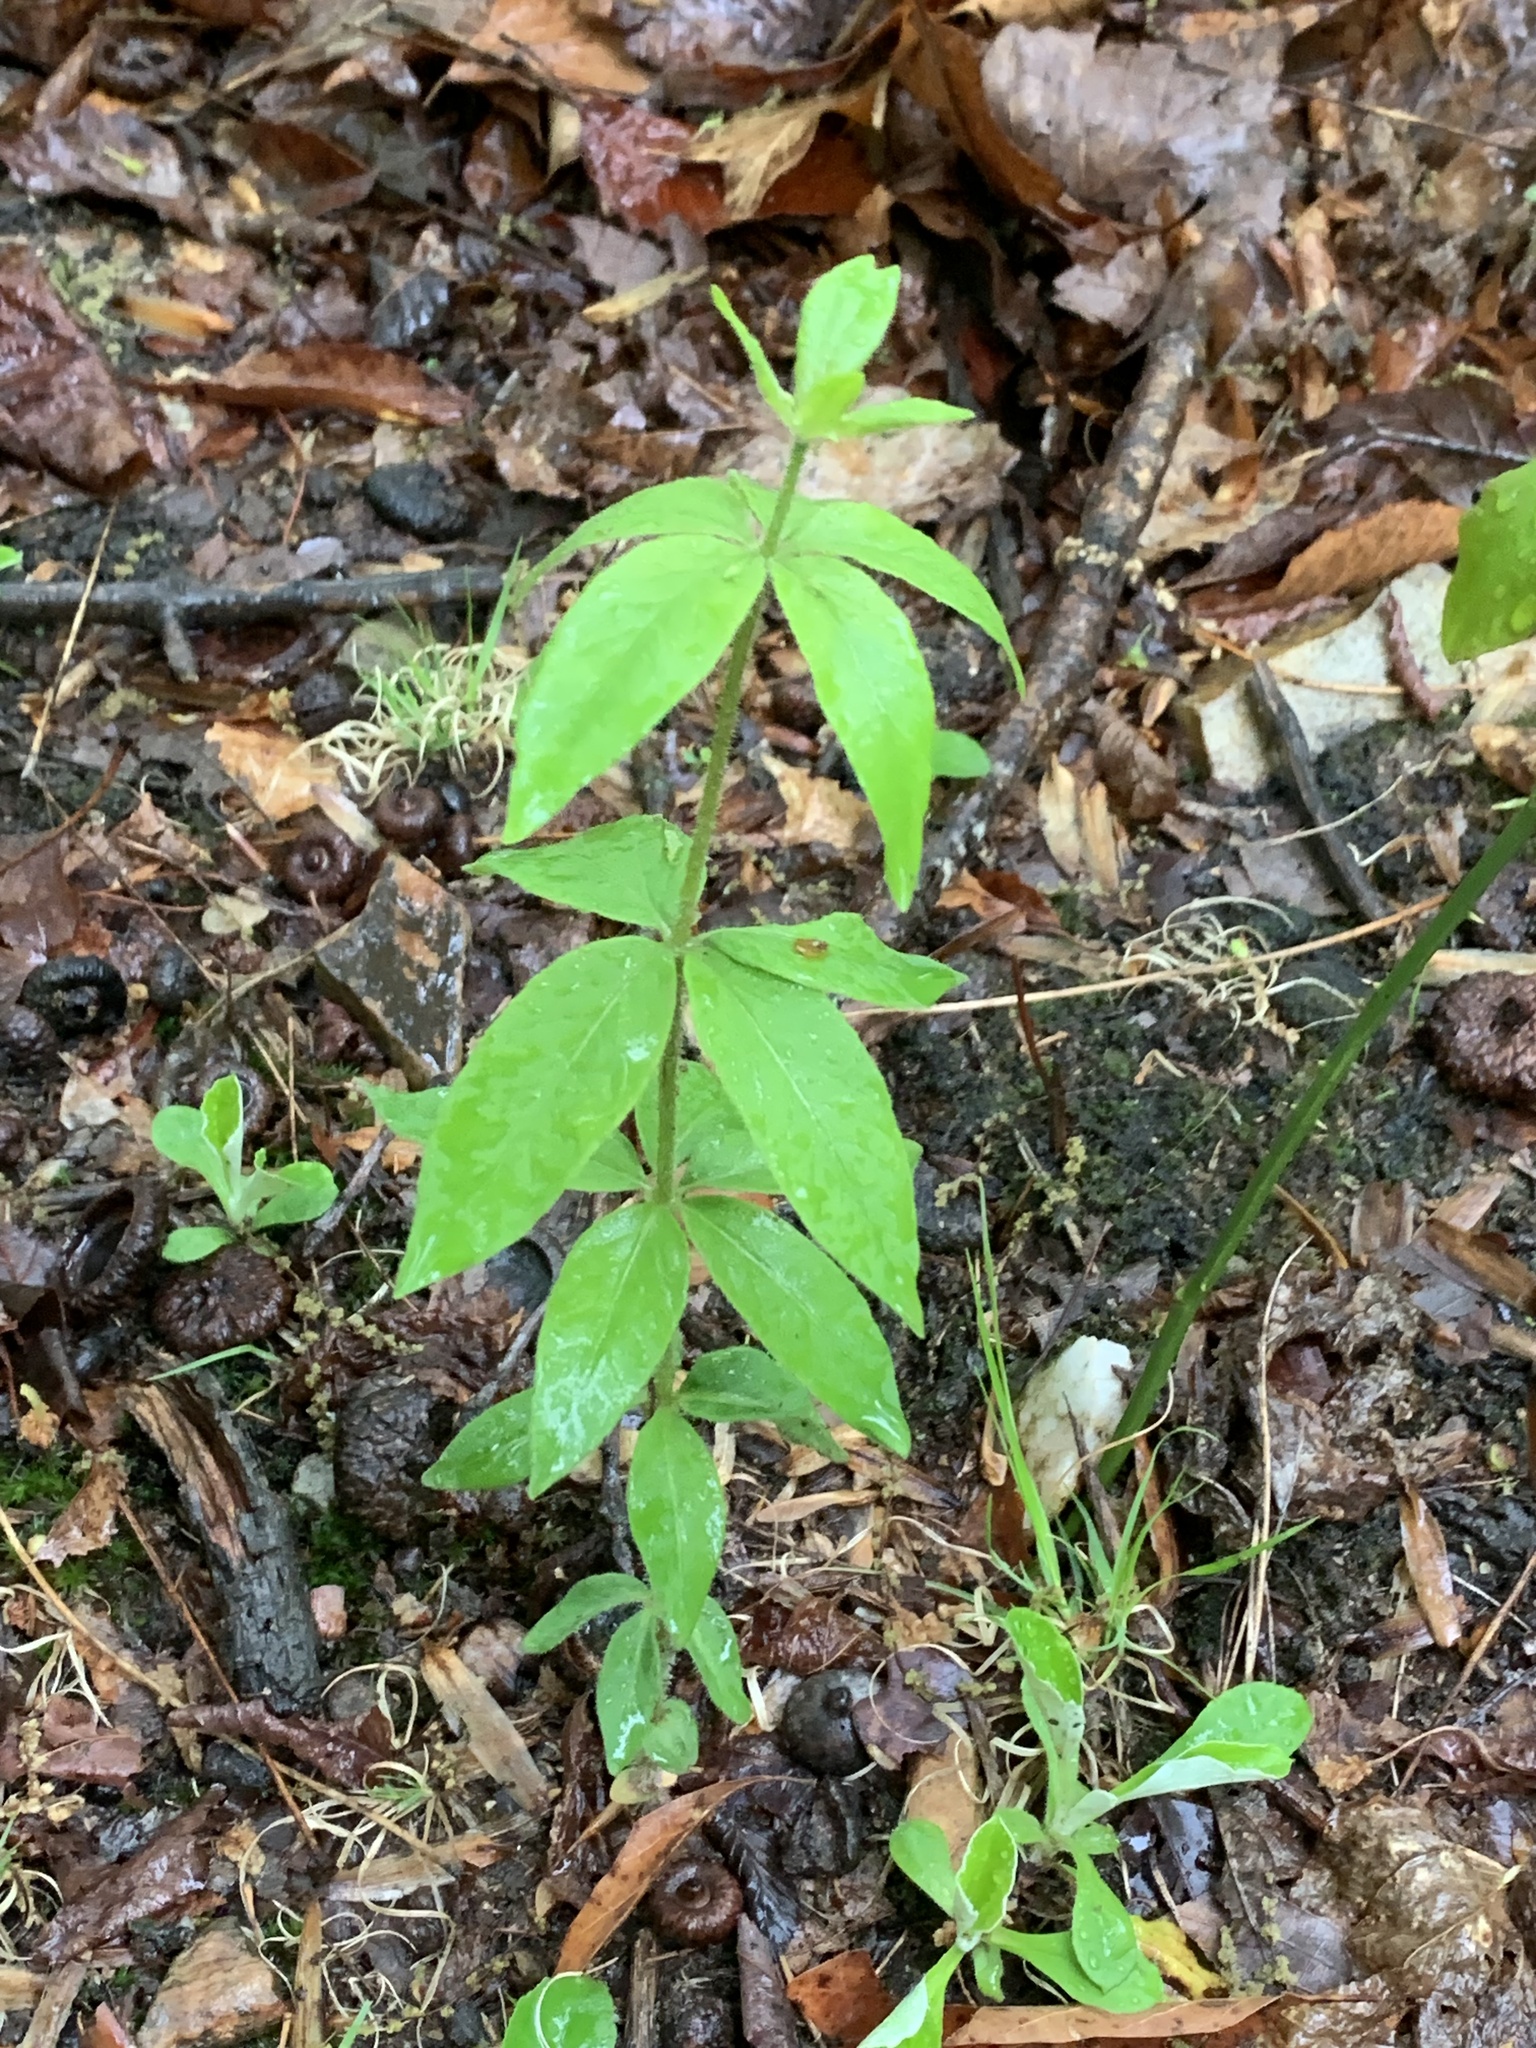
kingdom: Plantae
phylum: Tracheophyta
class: Magnoliopsida
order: Ericales
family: Primulaceae
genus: Lysimachia
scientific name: Lysimachia quadrifolia
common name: Whorled loosestrife
